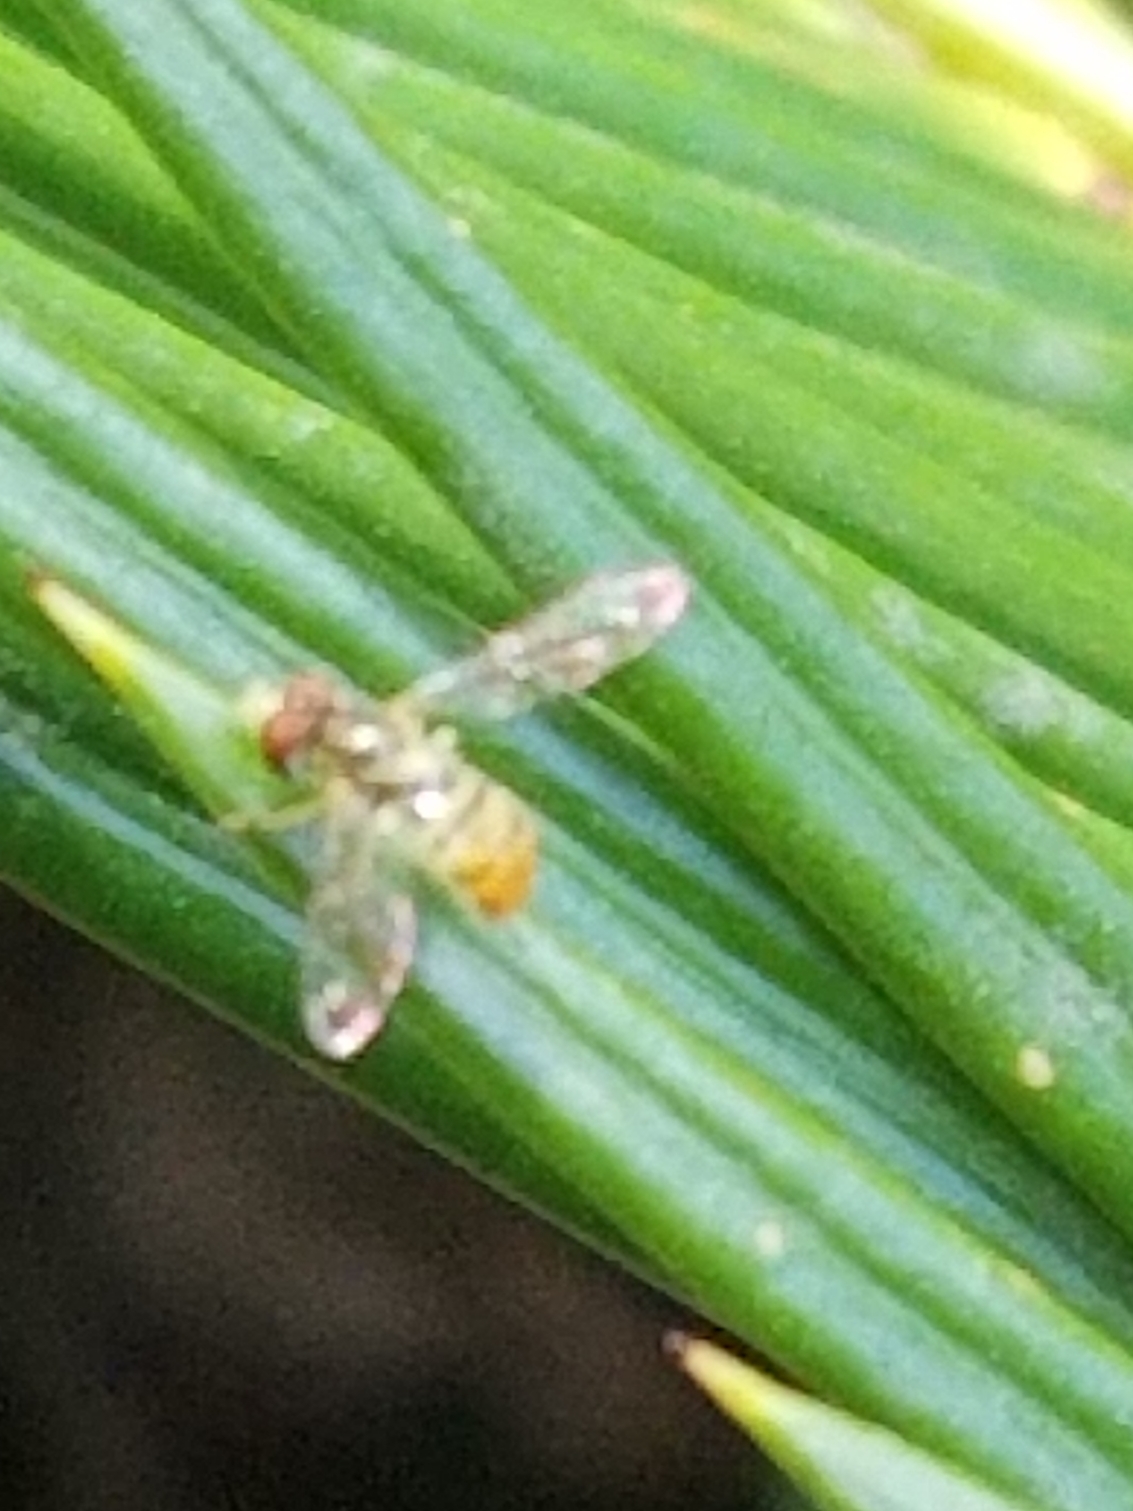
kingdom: Animalia
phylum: Arthropoda
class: Insecta
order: Diptera
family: Syrphidae
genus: Toxomerus
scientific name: Toxomerus marginatus
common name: Syrphid fly
